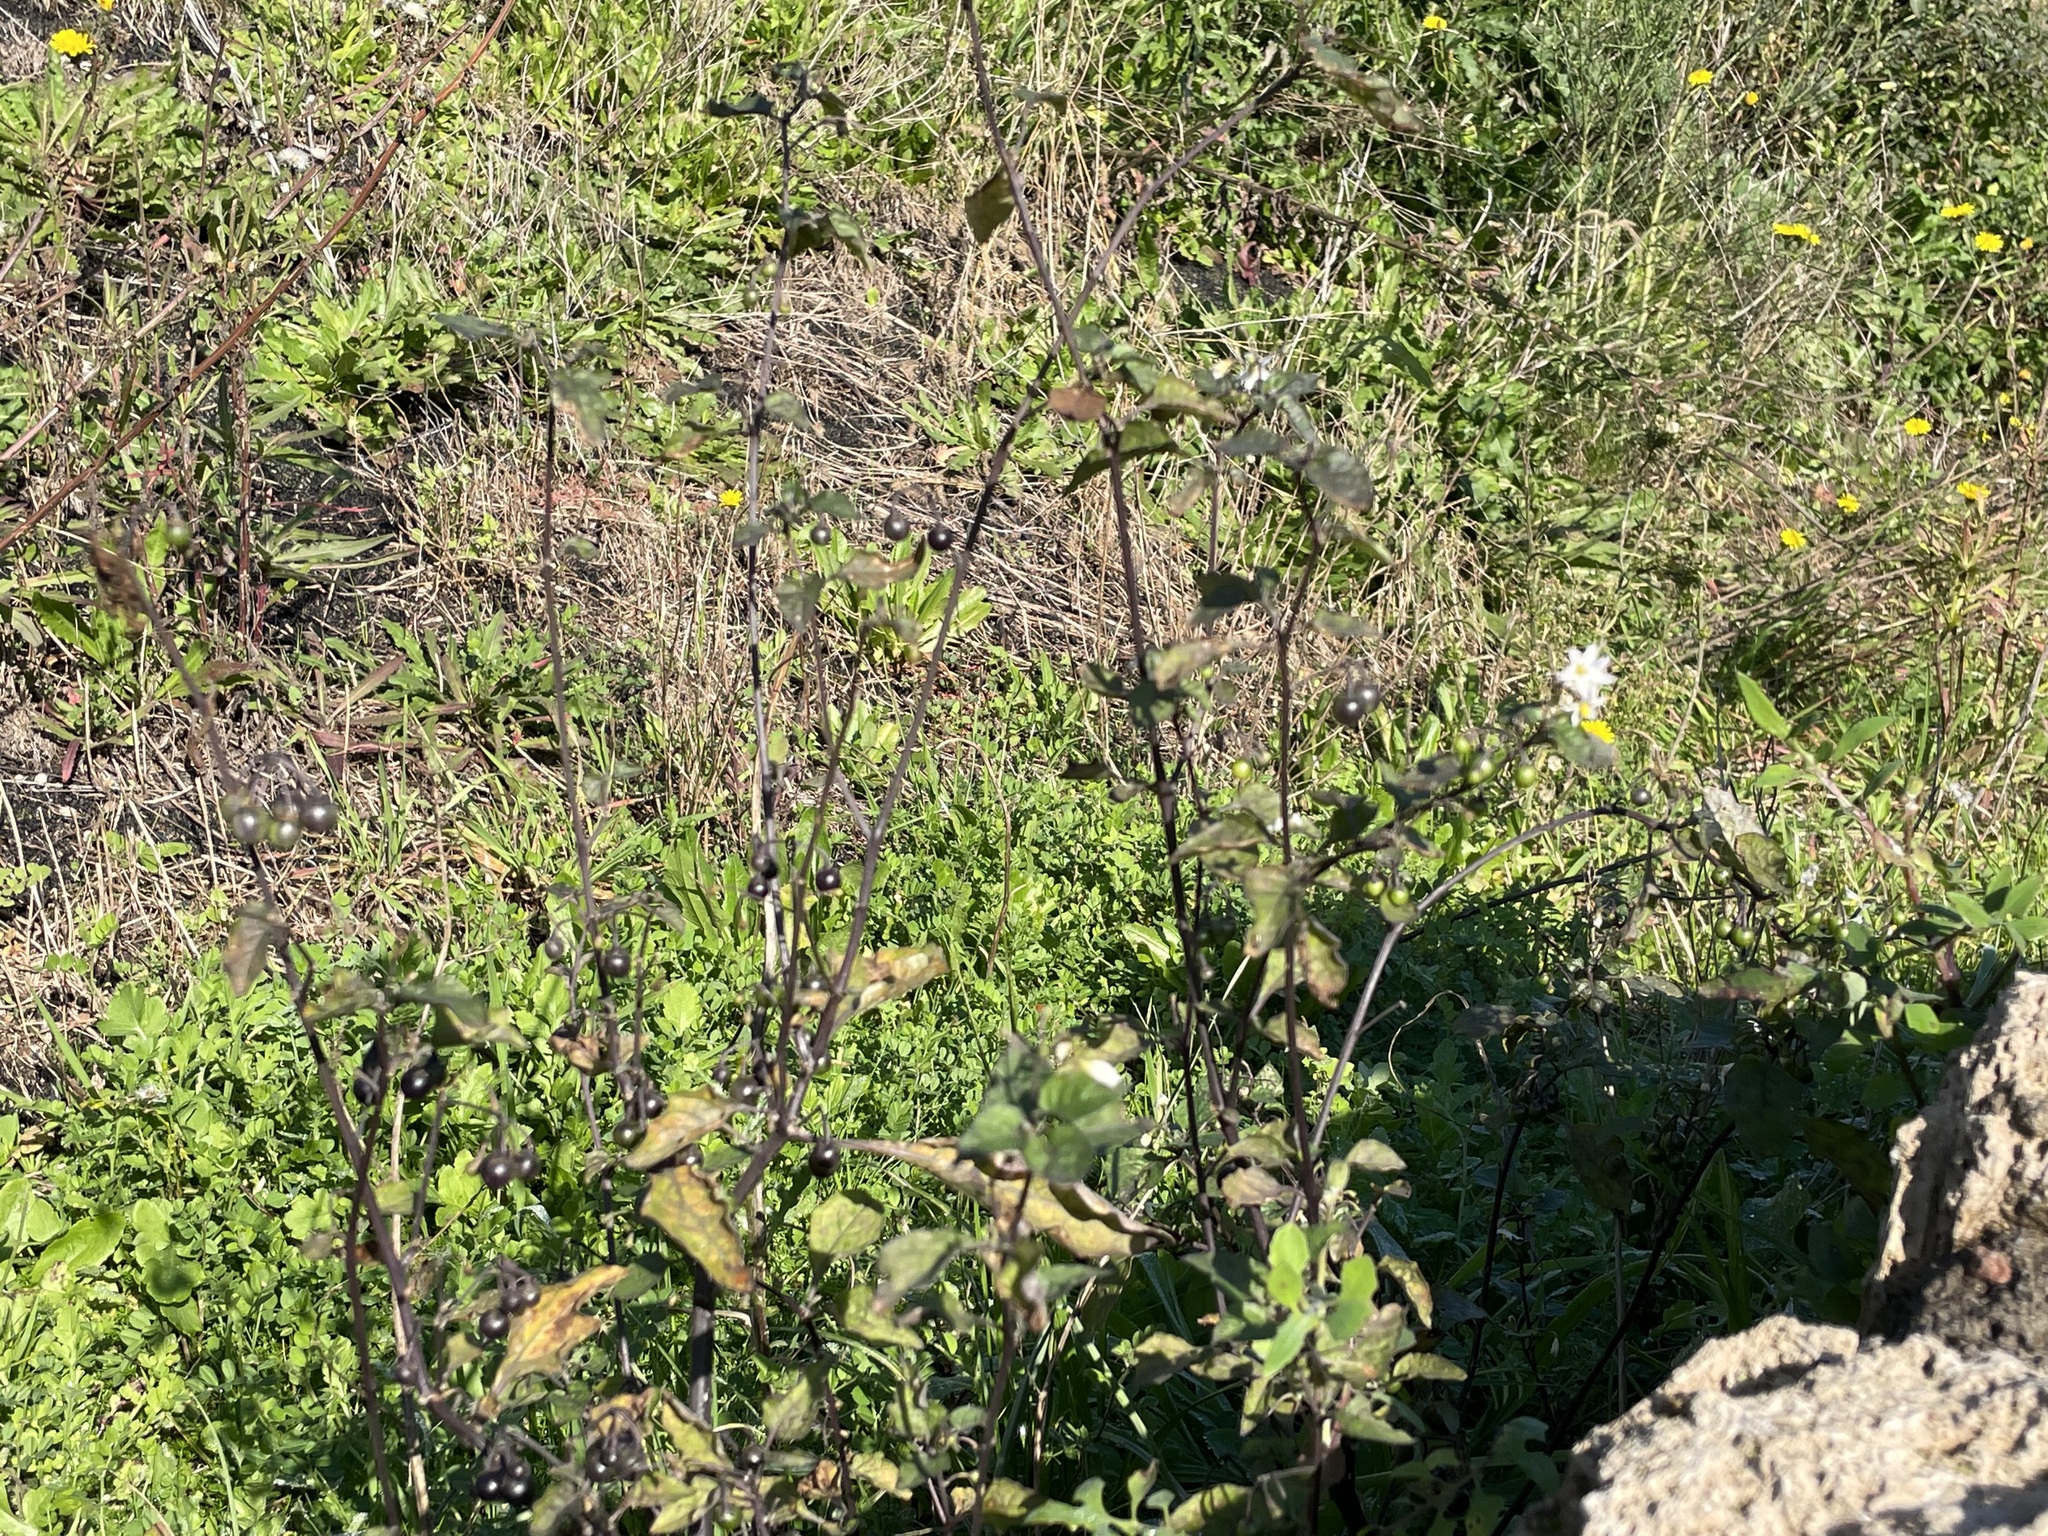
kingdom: Plantae
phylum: Tracheophyta
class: Magnoliopsida
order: Solanales
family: Solanaceae
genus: Solanum
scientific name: Solanum nigrum
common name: Black nightshade
